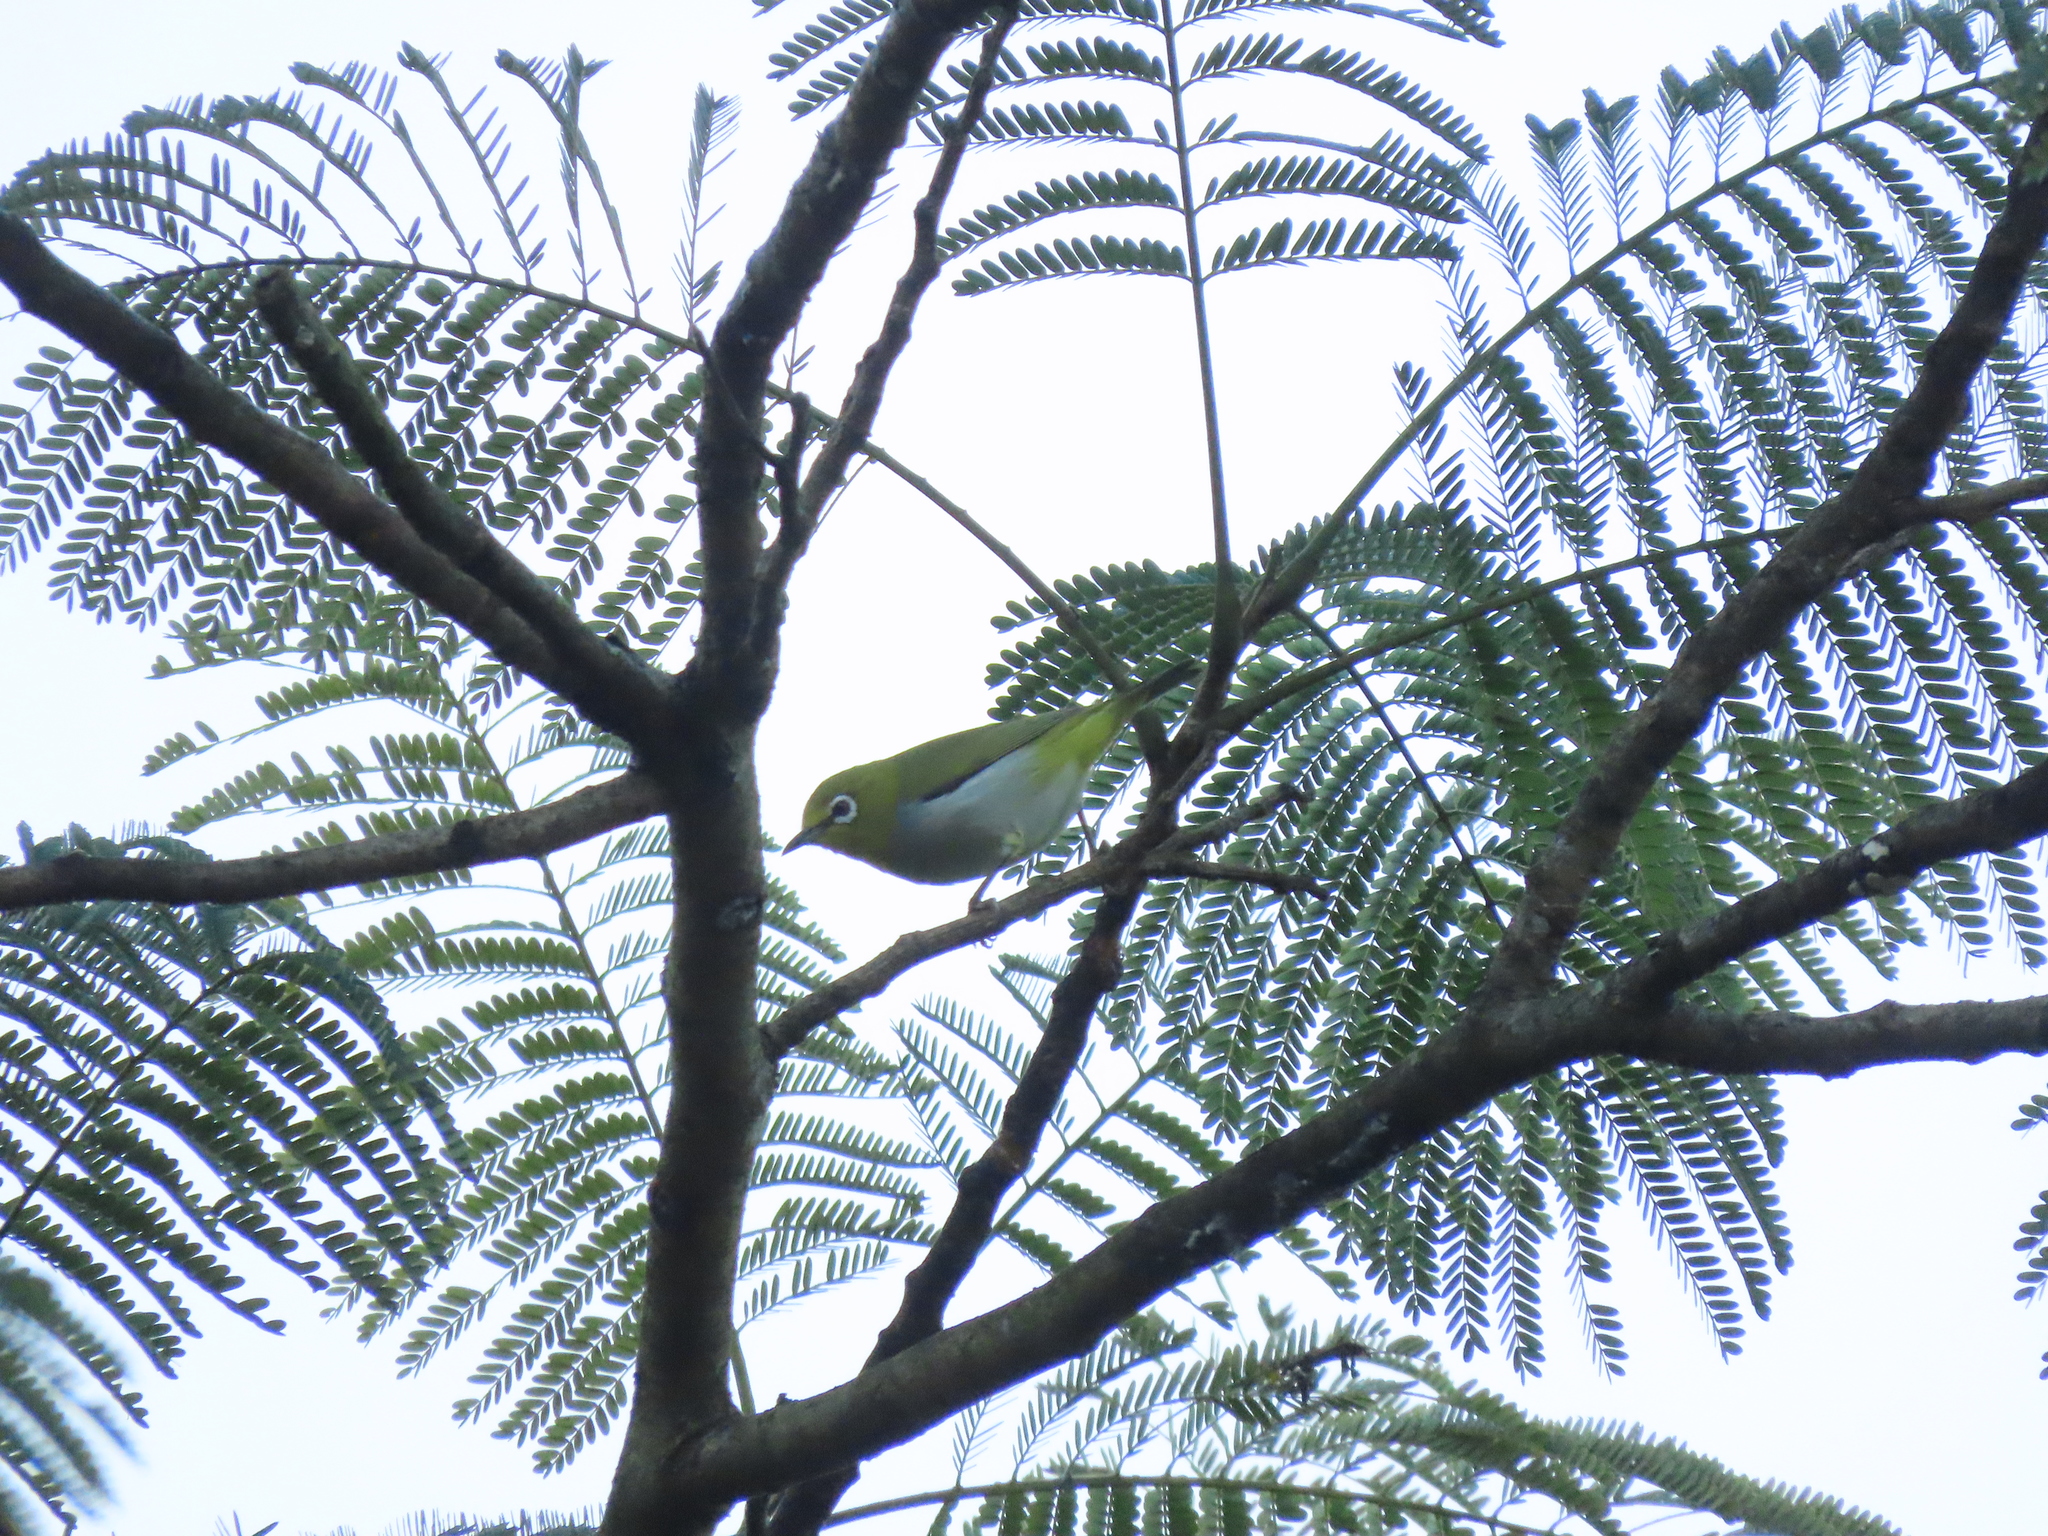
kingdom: Animalia
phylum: Chordata
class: Aves
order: Passeriformes
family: Zosteropidae
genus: Zosterops
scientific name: Zosterops simplex
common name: Swinhoe's white-eye
